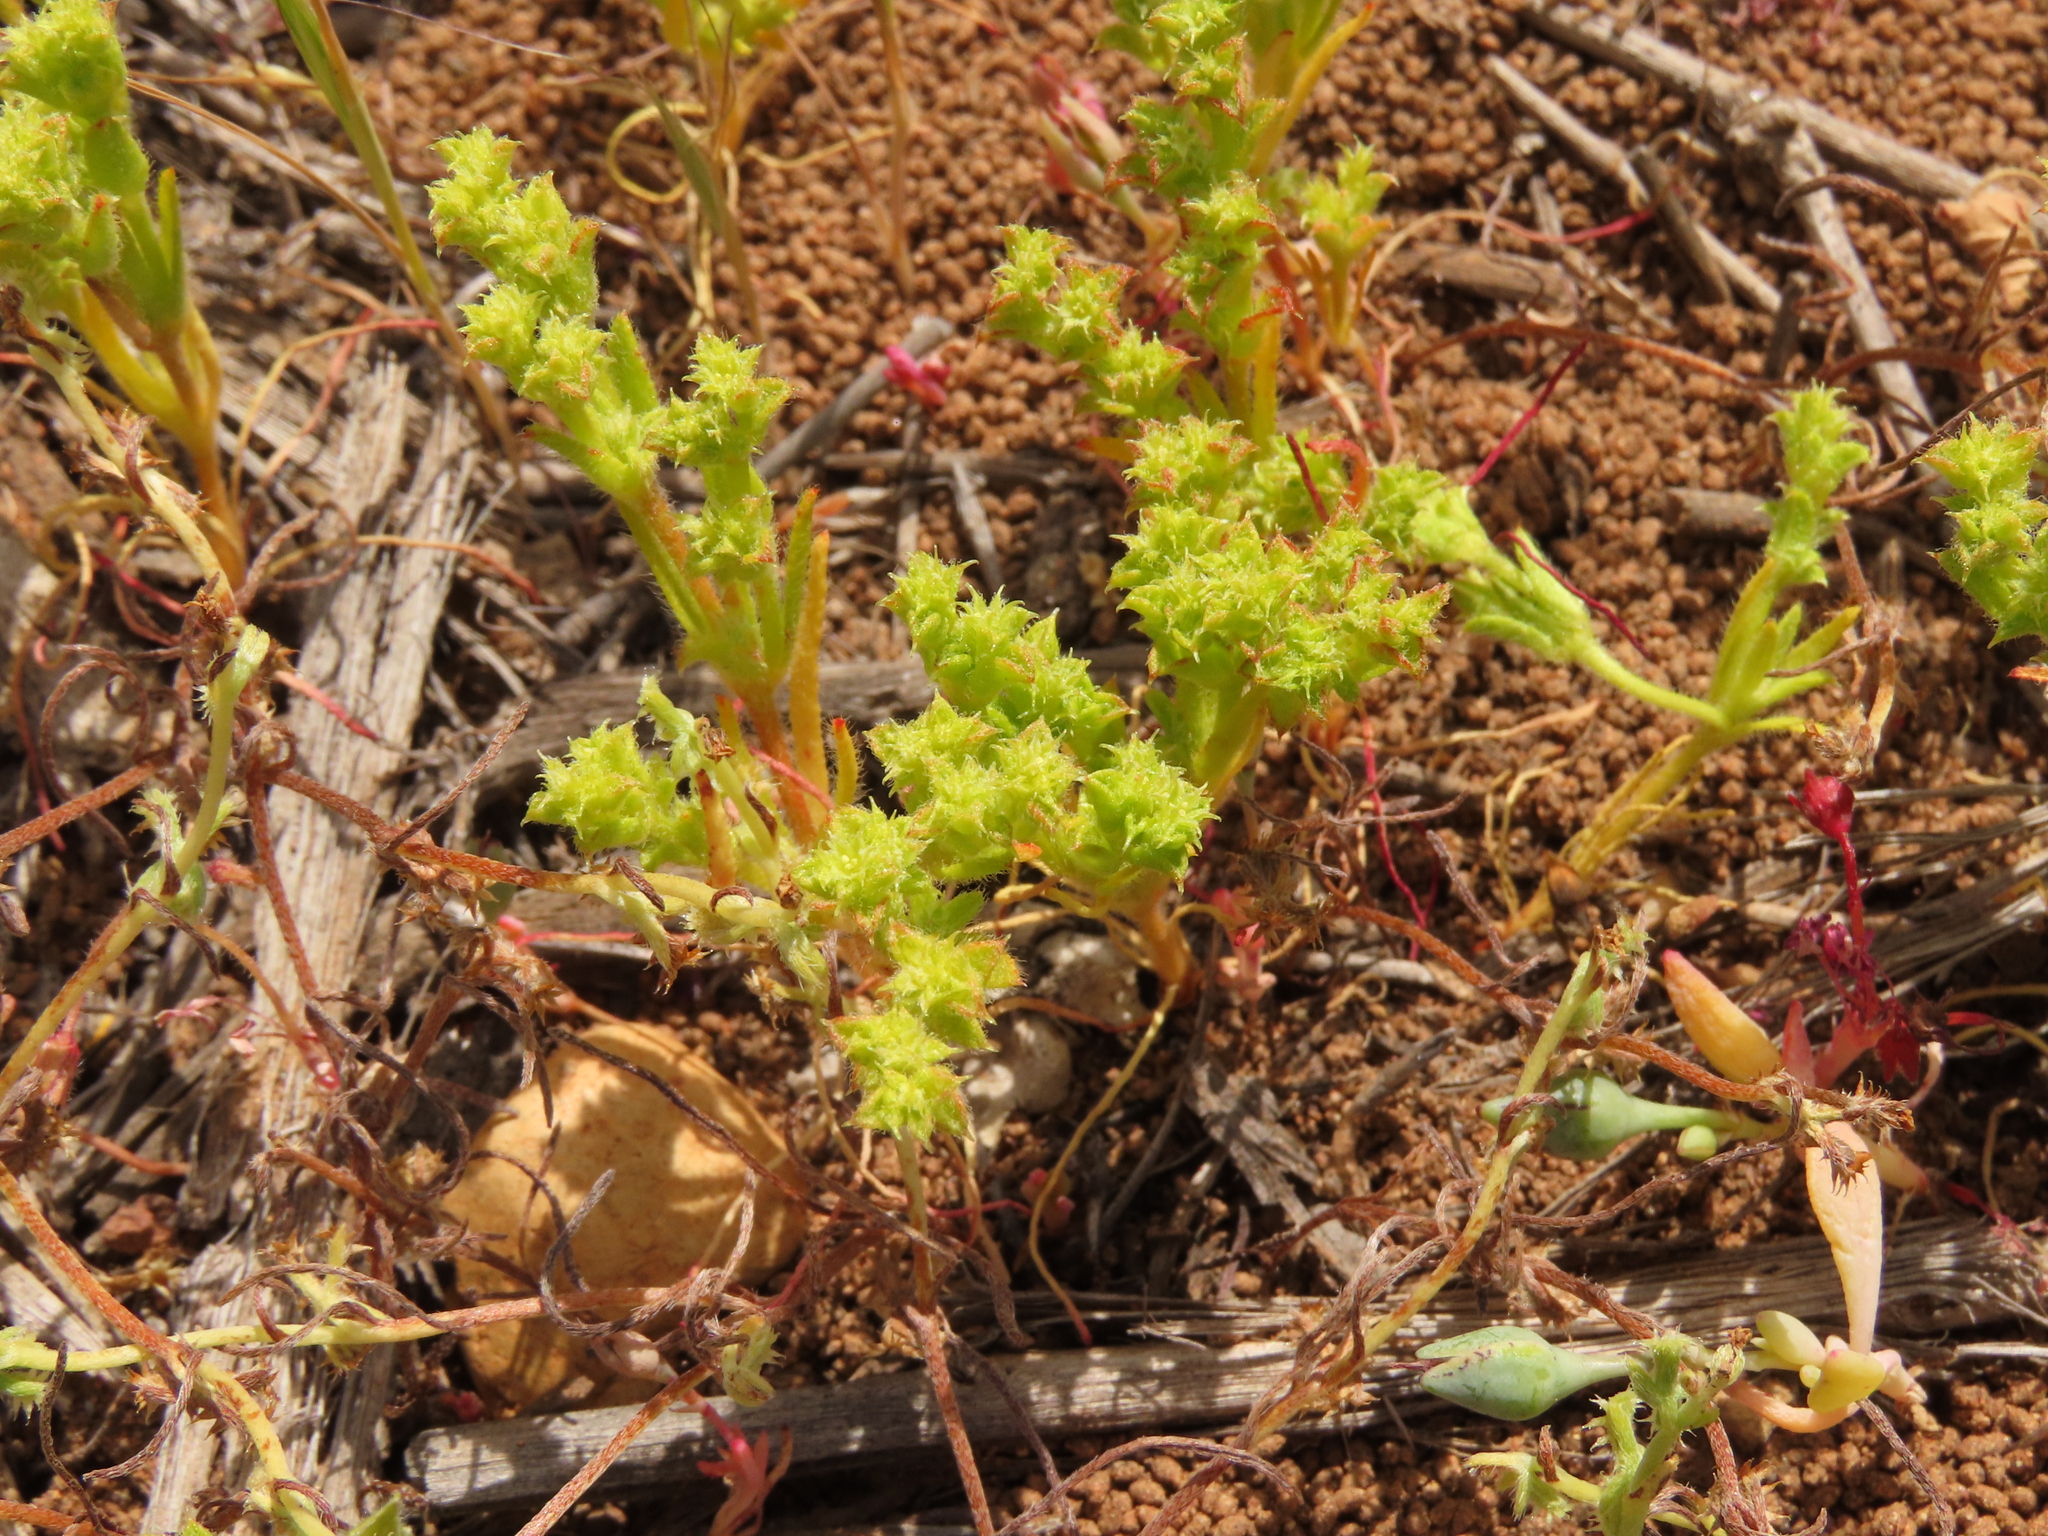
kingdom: Plantae
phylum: Tracheophyta
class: Magnoliopsida
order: Caryophyllales
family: Polygonaceae
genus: Lastarriaea
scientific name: Lastarriaea chilensis
